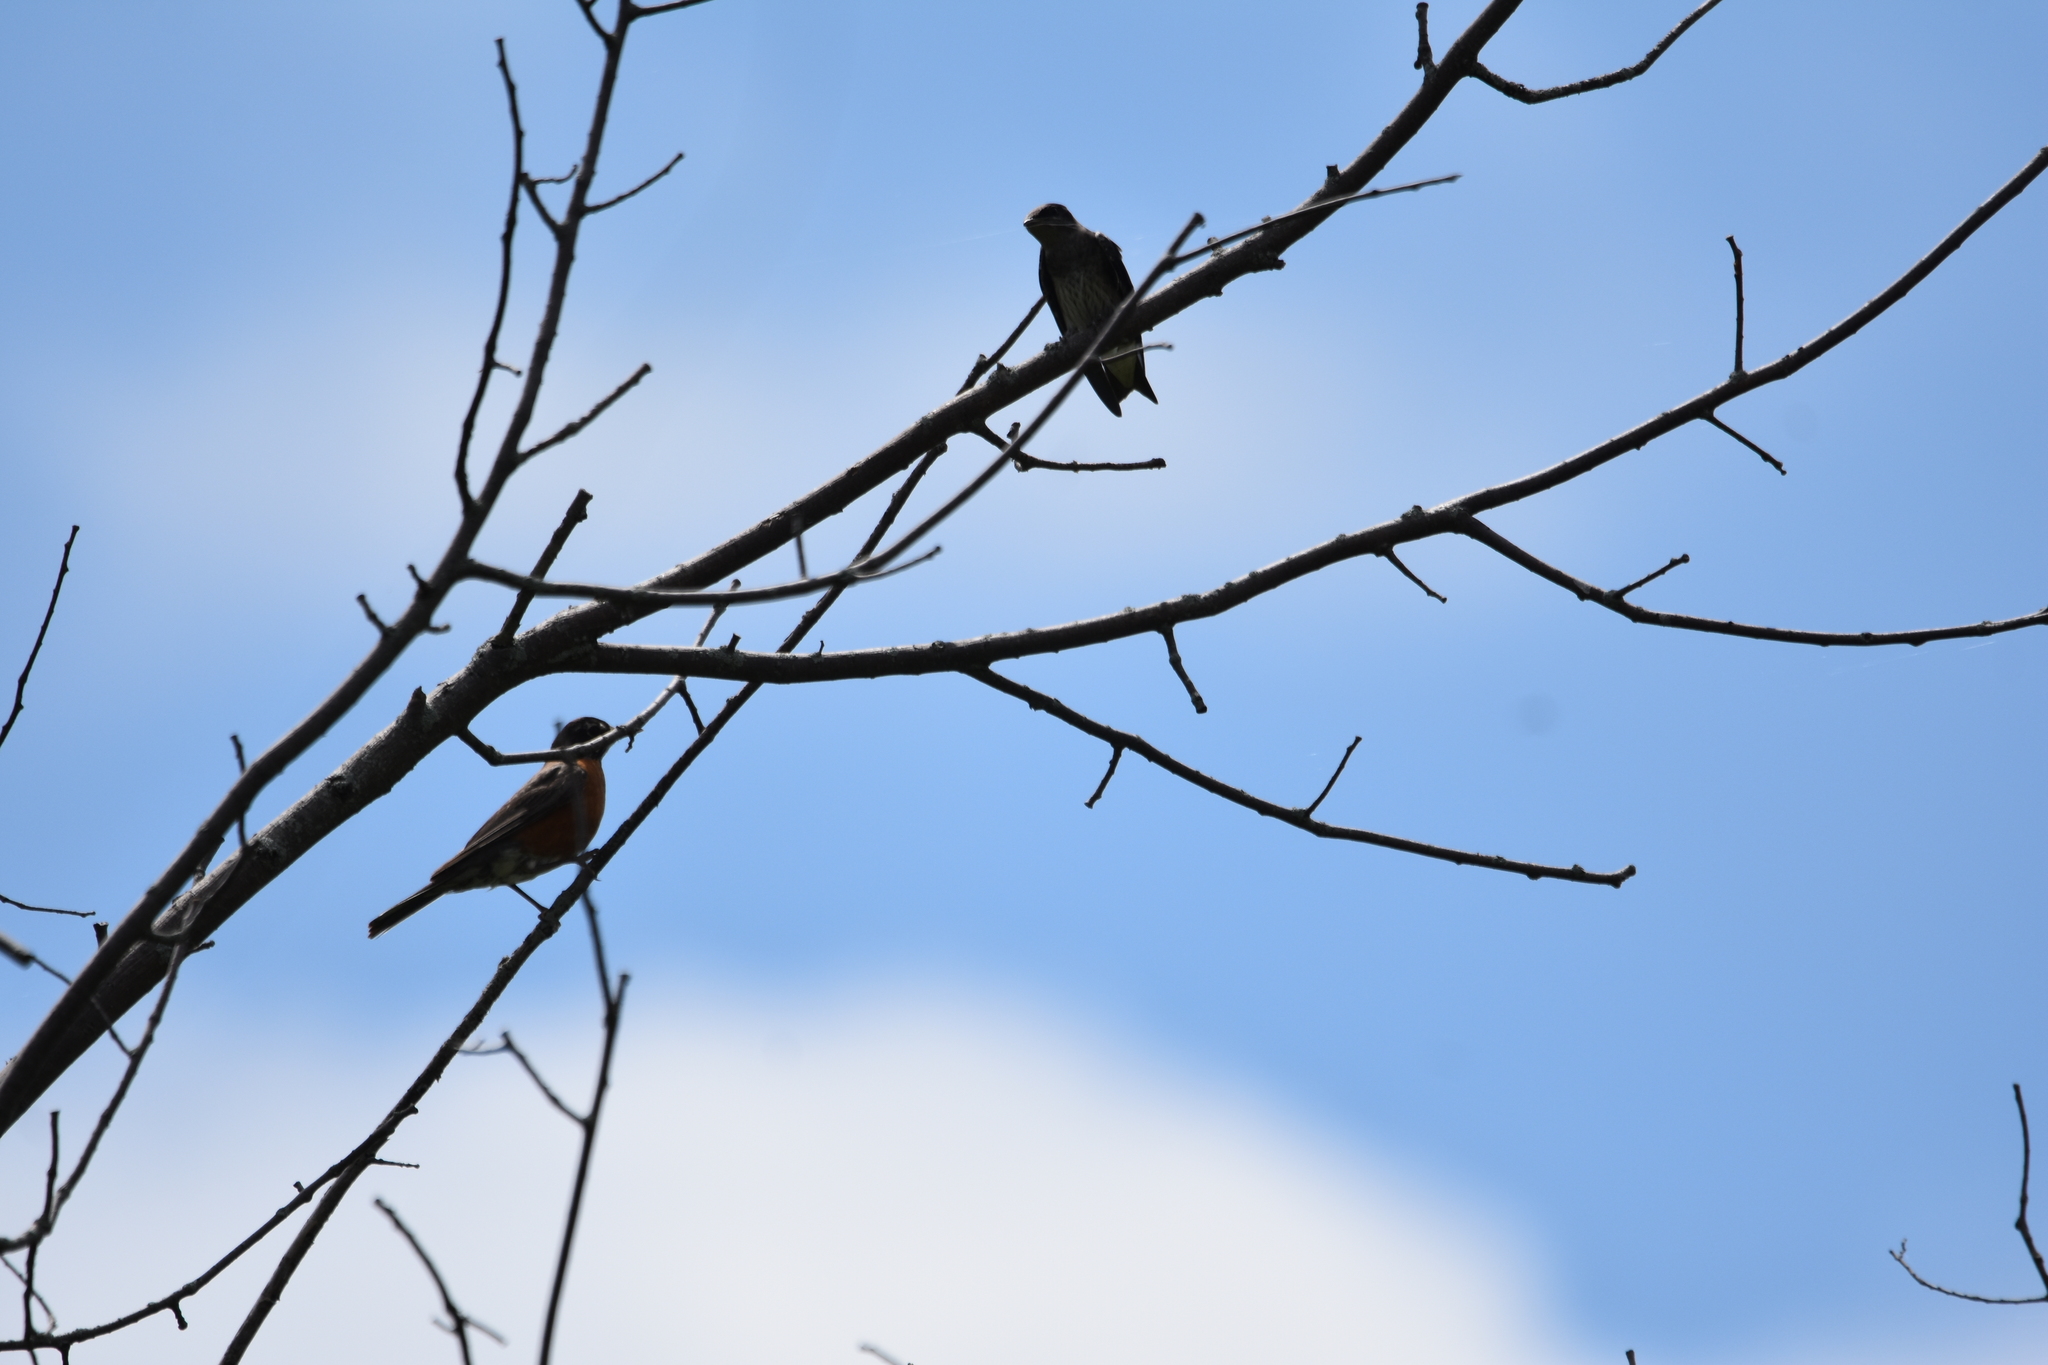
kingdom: Animalia
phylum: Chordata
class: Aves
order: Passeriformes
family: Hirundinidae
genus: Progne
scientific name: Progne subis
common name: Purple martin
